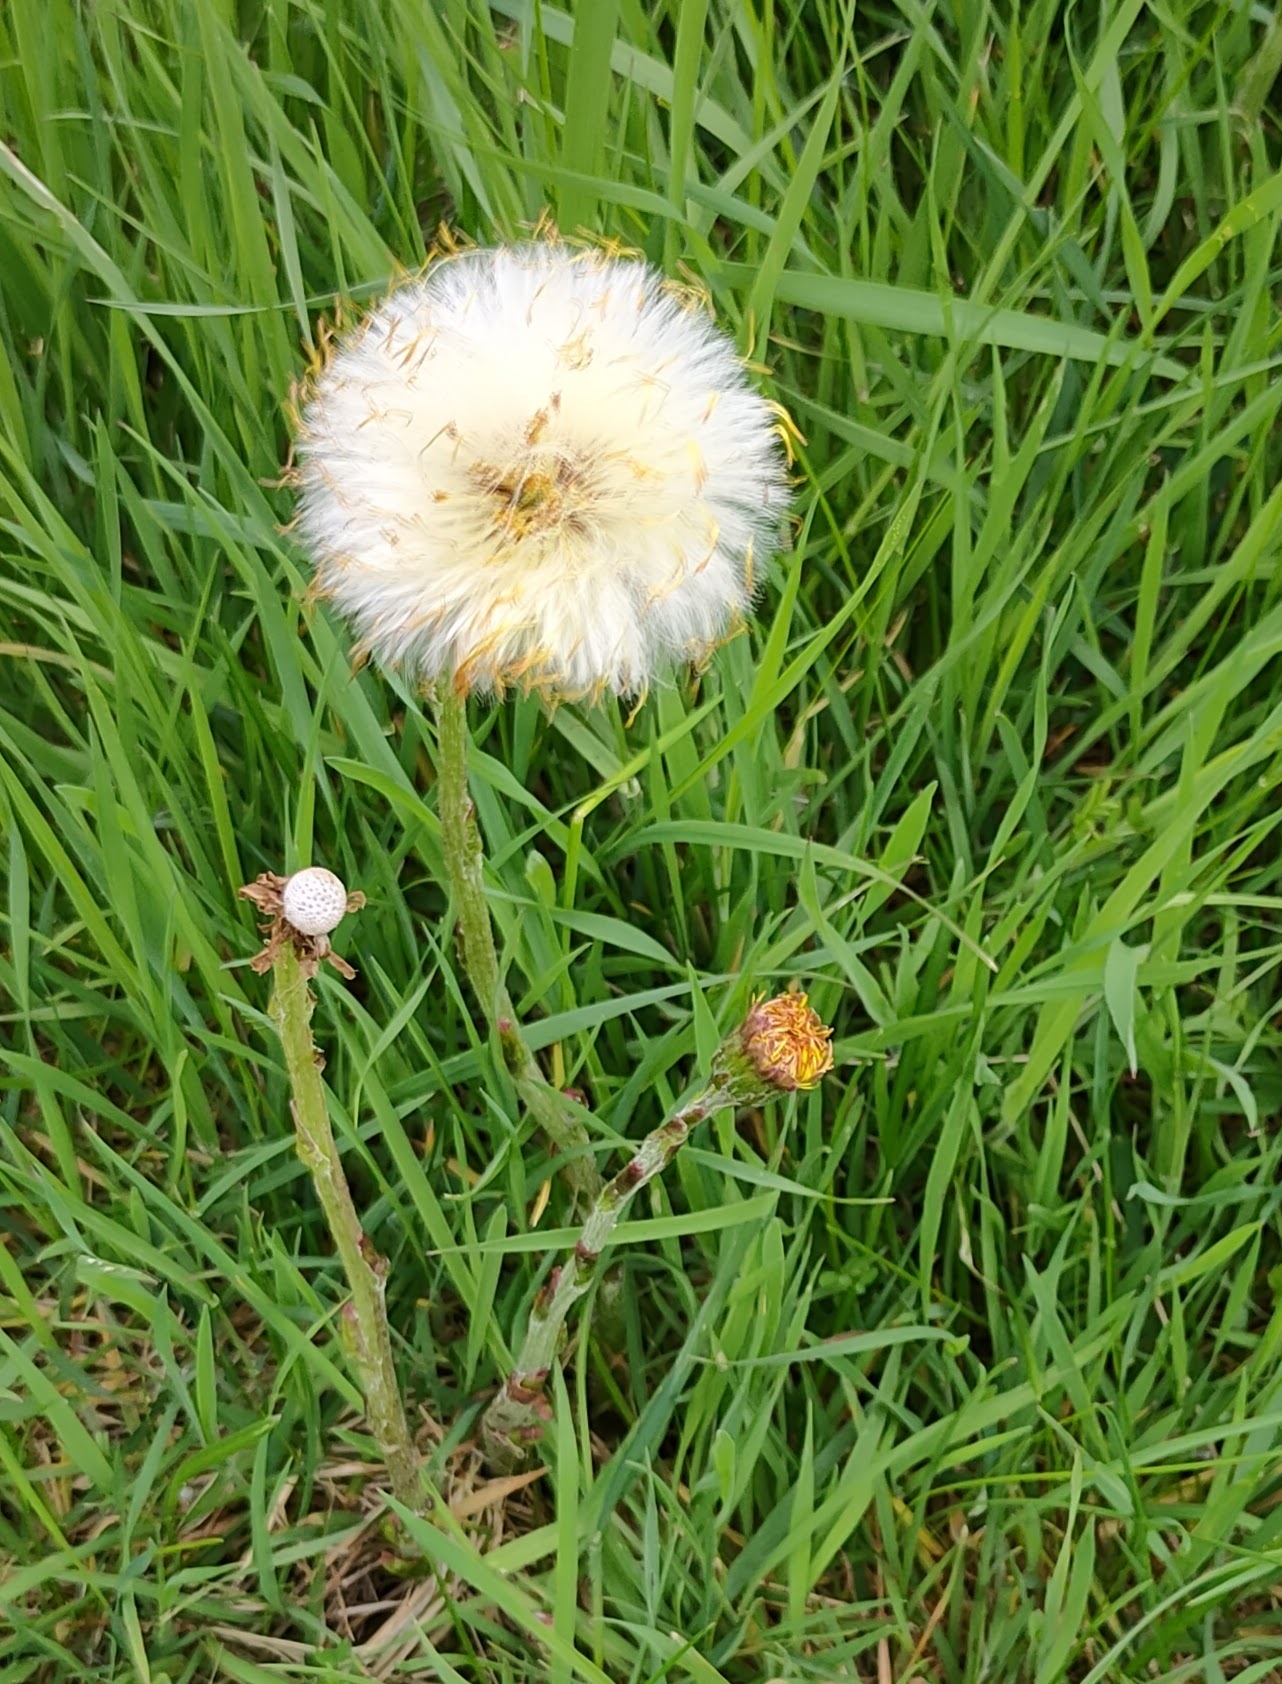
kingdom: Plantae
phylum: Tracheophyta
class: Magnoliopsida
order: Asterales
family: Asteraceae
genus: Tussilago
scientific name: Tussilago farfara
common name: Coltsfoot
